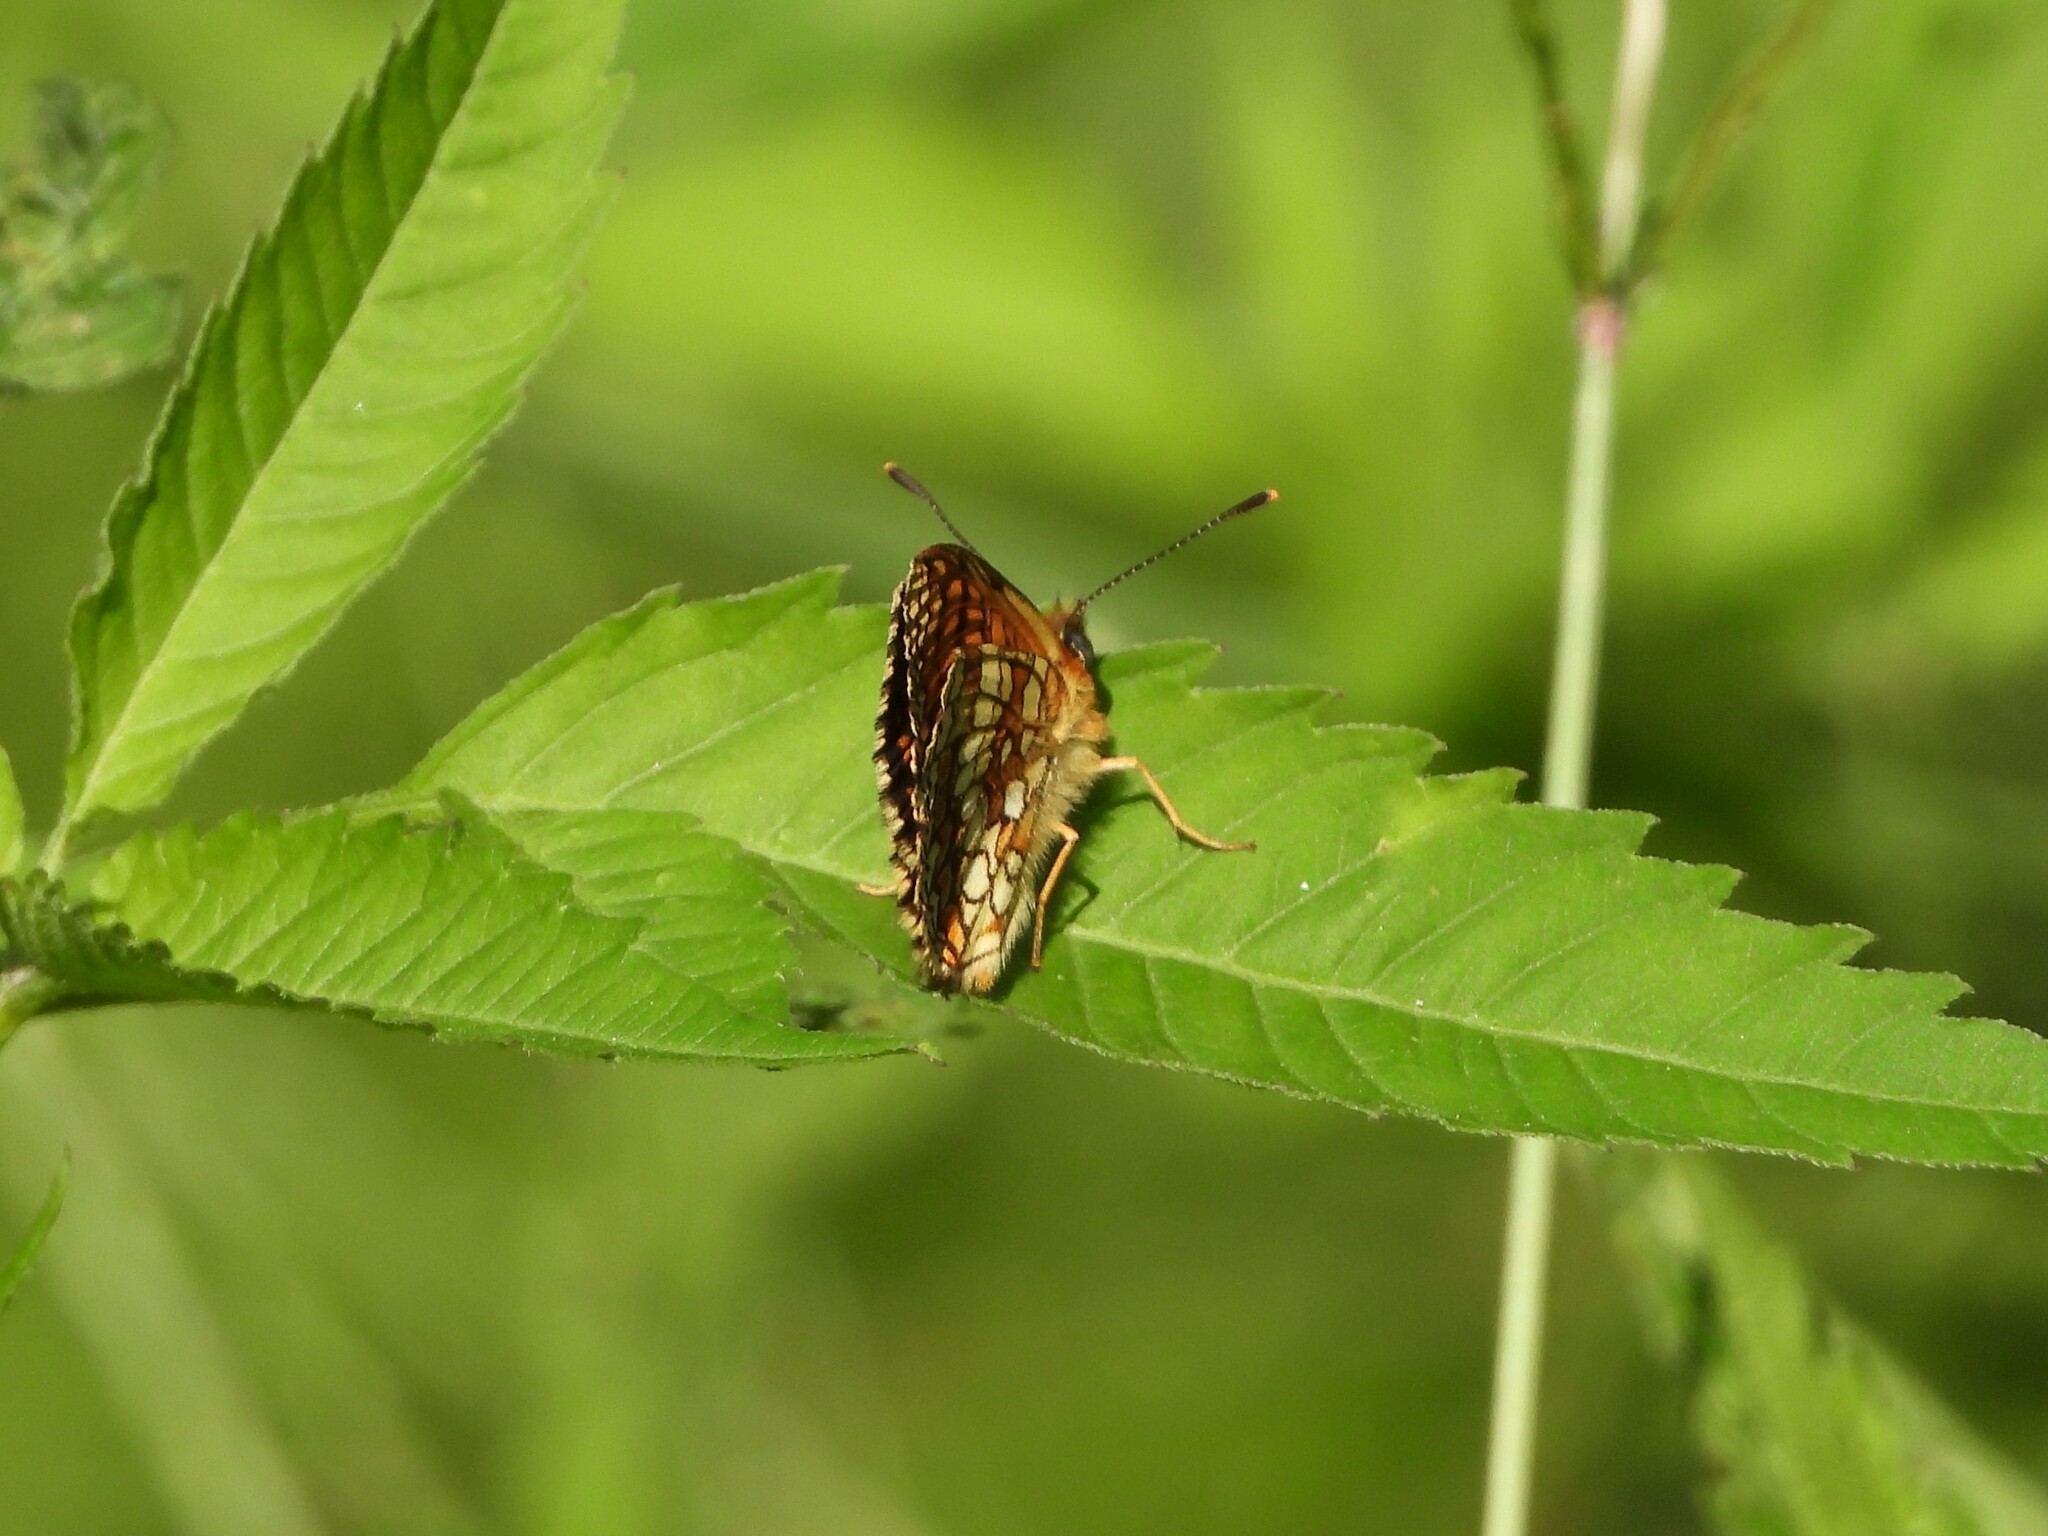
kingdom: Animalia
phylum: Arthropoda
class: Insecta
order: Lepidoptera
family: Nymphalidae
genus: Mellicta
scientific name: Mellicta athalia
